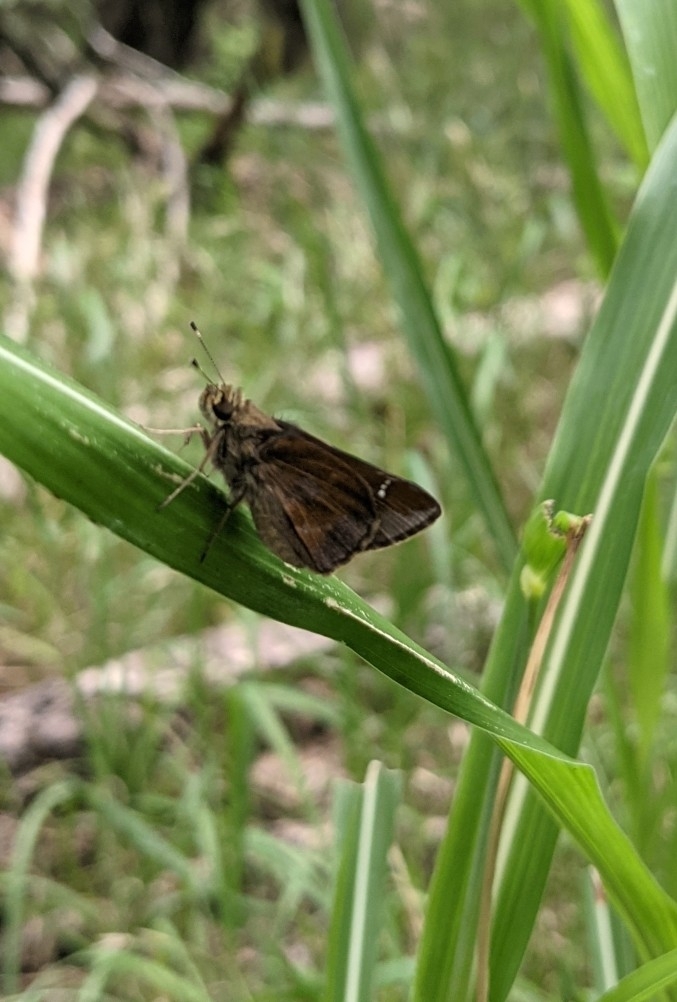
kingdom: Animalia
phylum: Arthropoda
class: Insecta
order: Lepidoptera
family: Hesperiidae
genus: Lerema
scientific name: Lerema accius
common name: Clouded skipper
